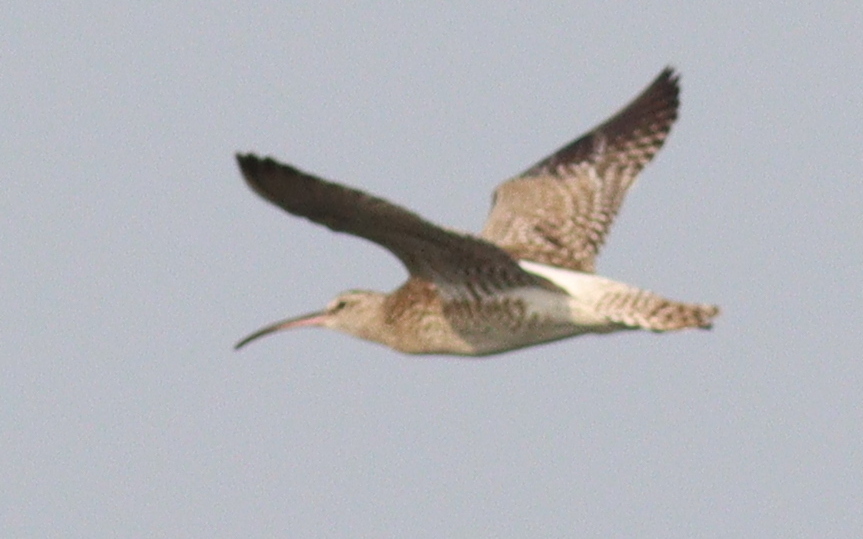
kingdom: Animalia
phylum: Chordata
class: Aves
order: Charadriiformes
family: Scolopacidae
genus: Numenius
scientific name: Numenius phaeopus
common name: Whimbrel
